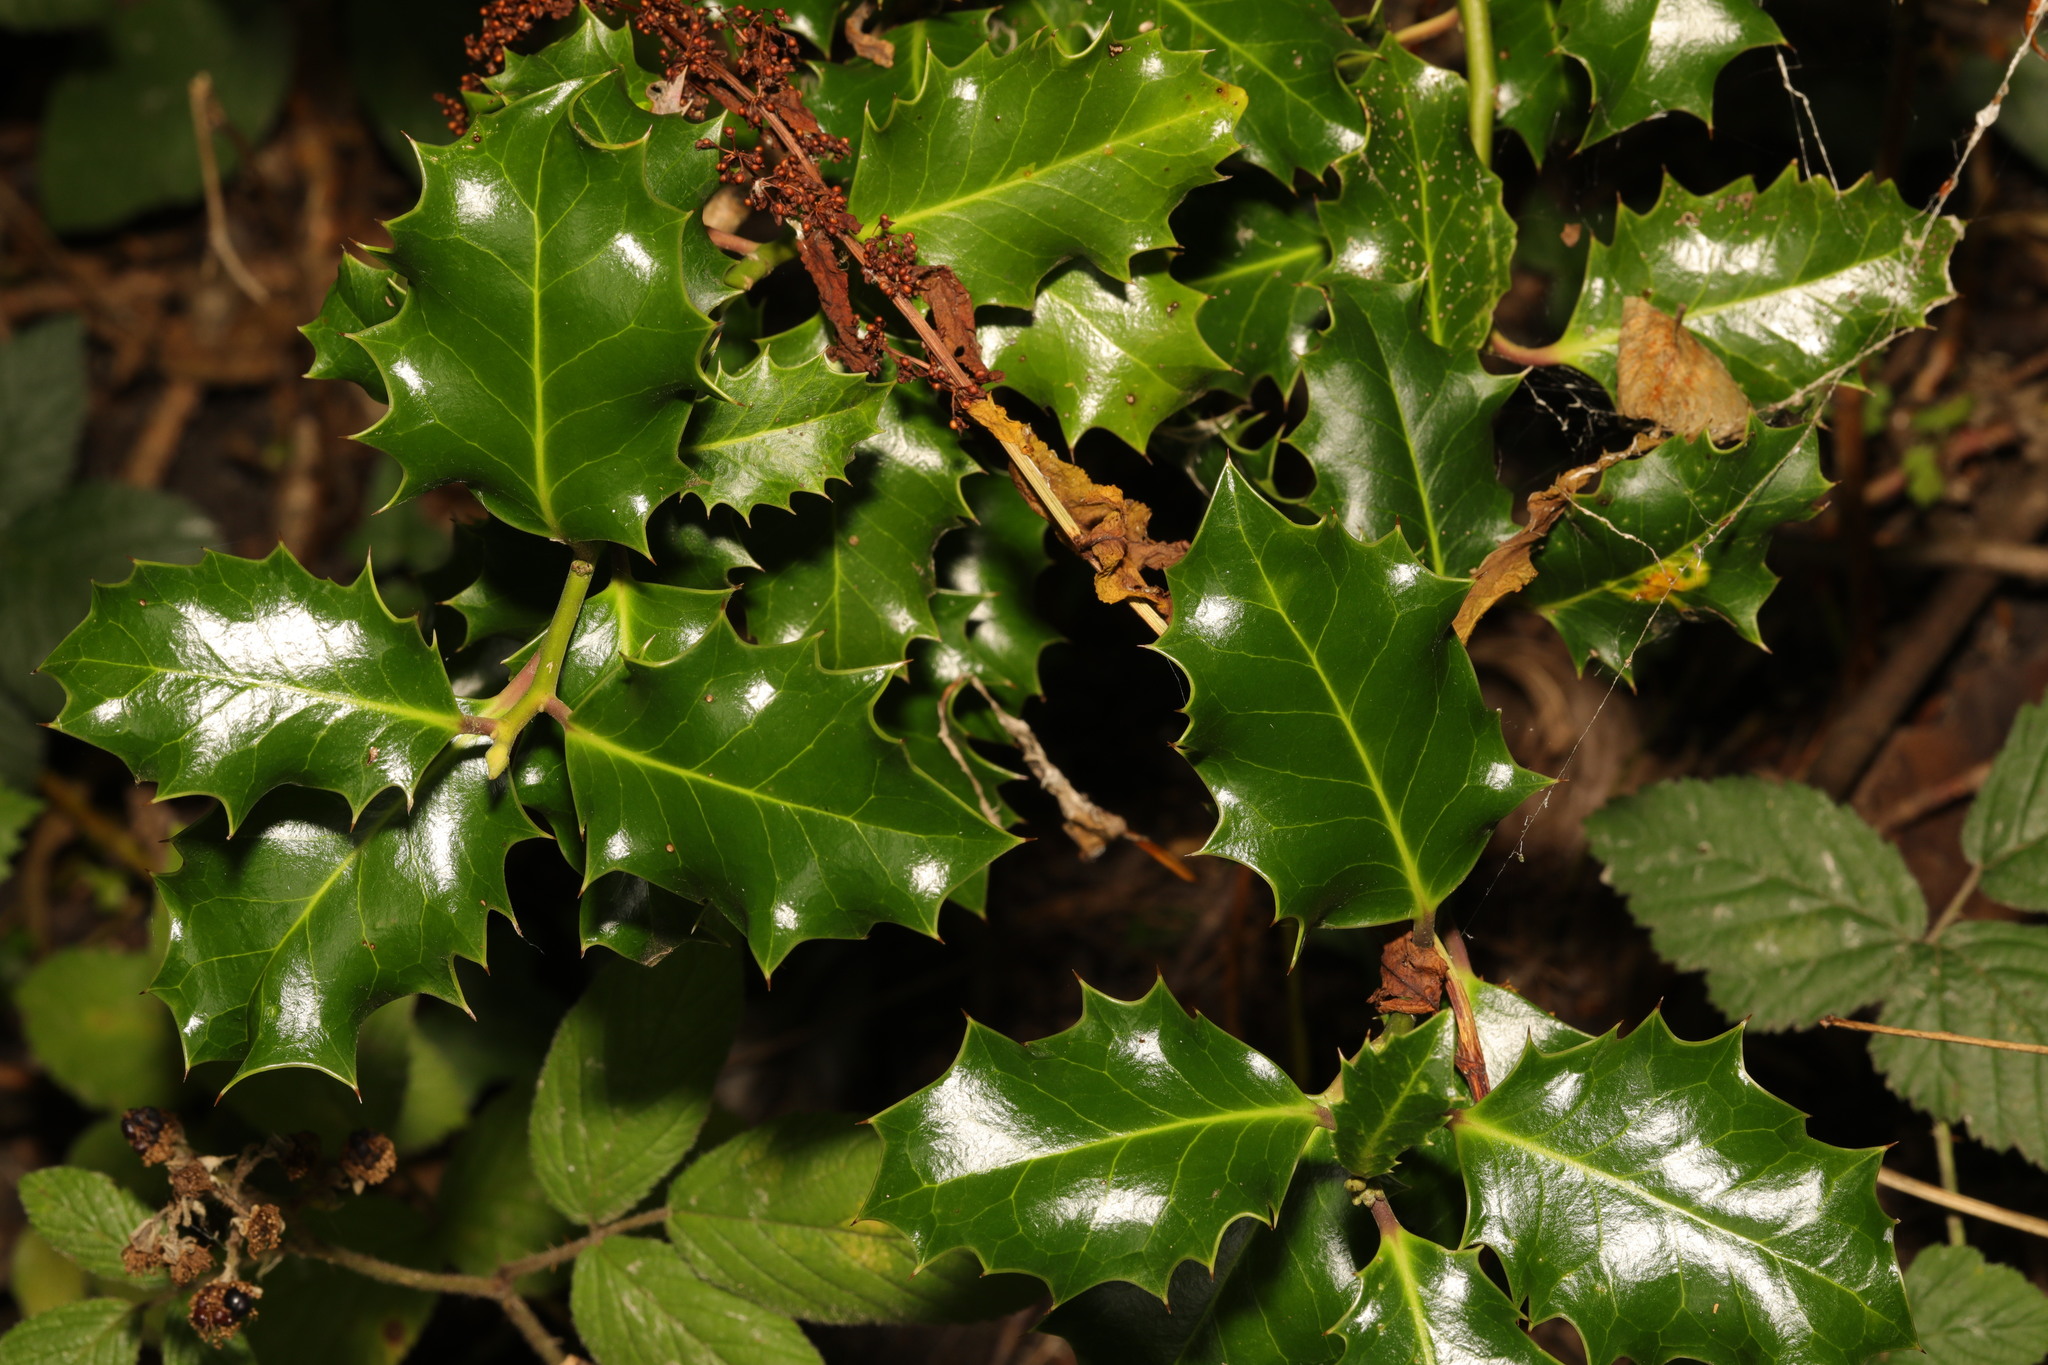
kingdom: Plantae
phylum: Tracheophyta
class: Magnoliopsida
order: Aquifoliales
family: Aquifoliaceae
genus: Ilex
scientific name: Ilex aquifolium
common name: English holly
